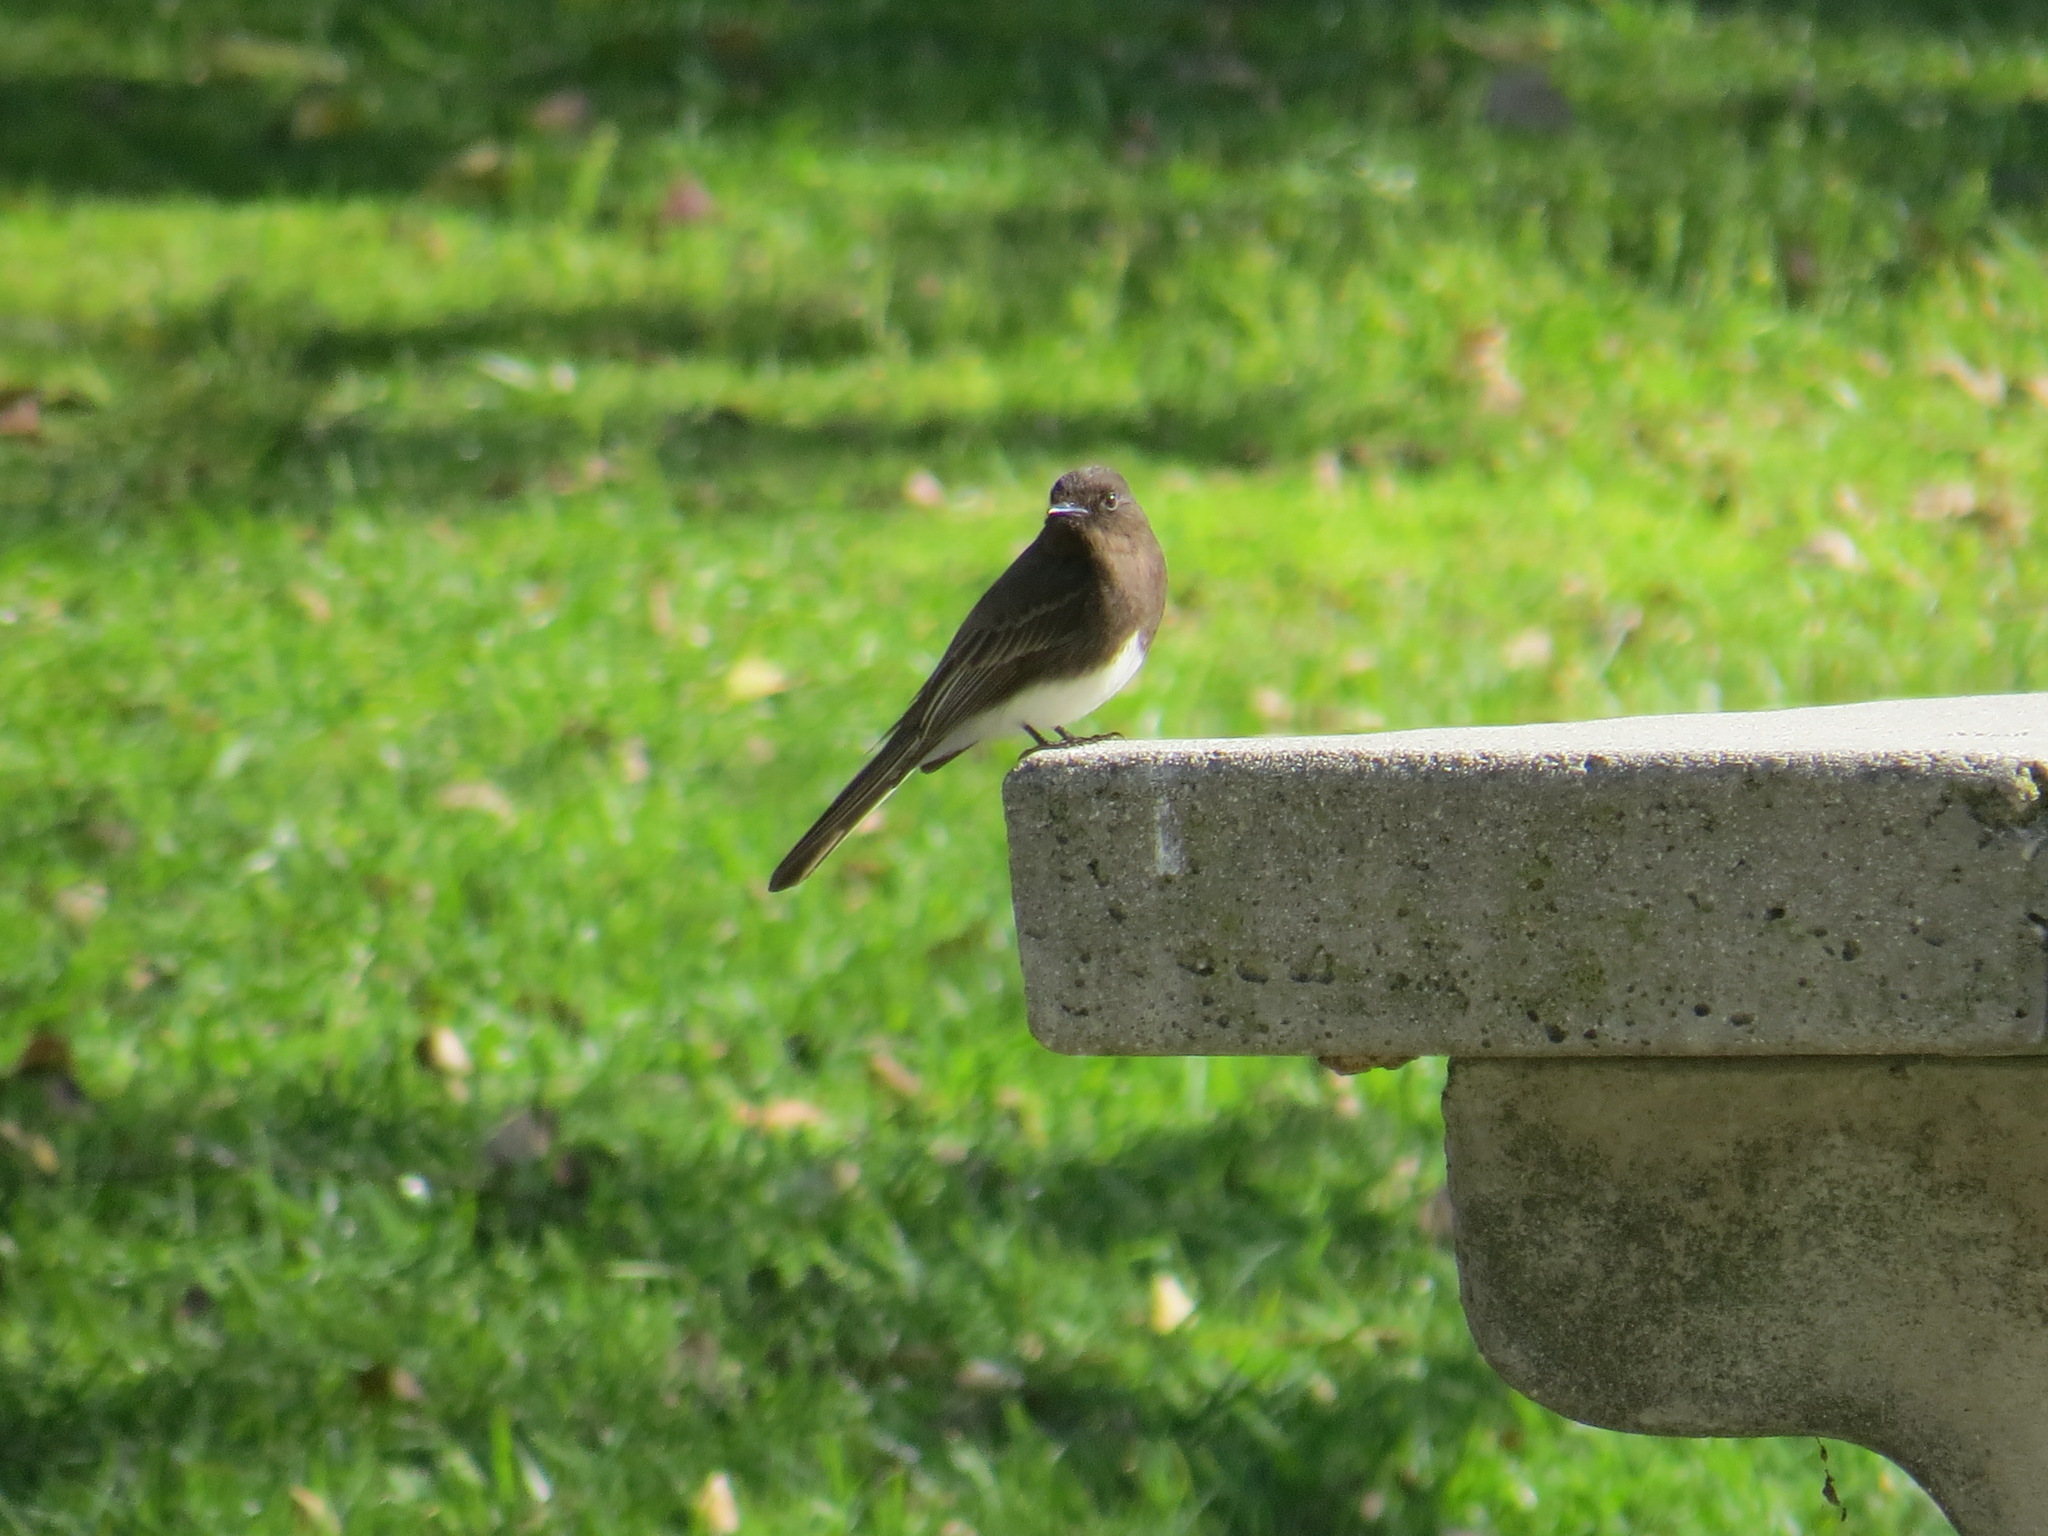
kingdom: Animalia
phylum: Chordata
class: Aves
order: Passeriformes
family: Tyrannidae
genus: Sayornis
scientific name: Sayornis nigricans
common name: Black phoebe
